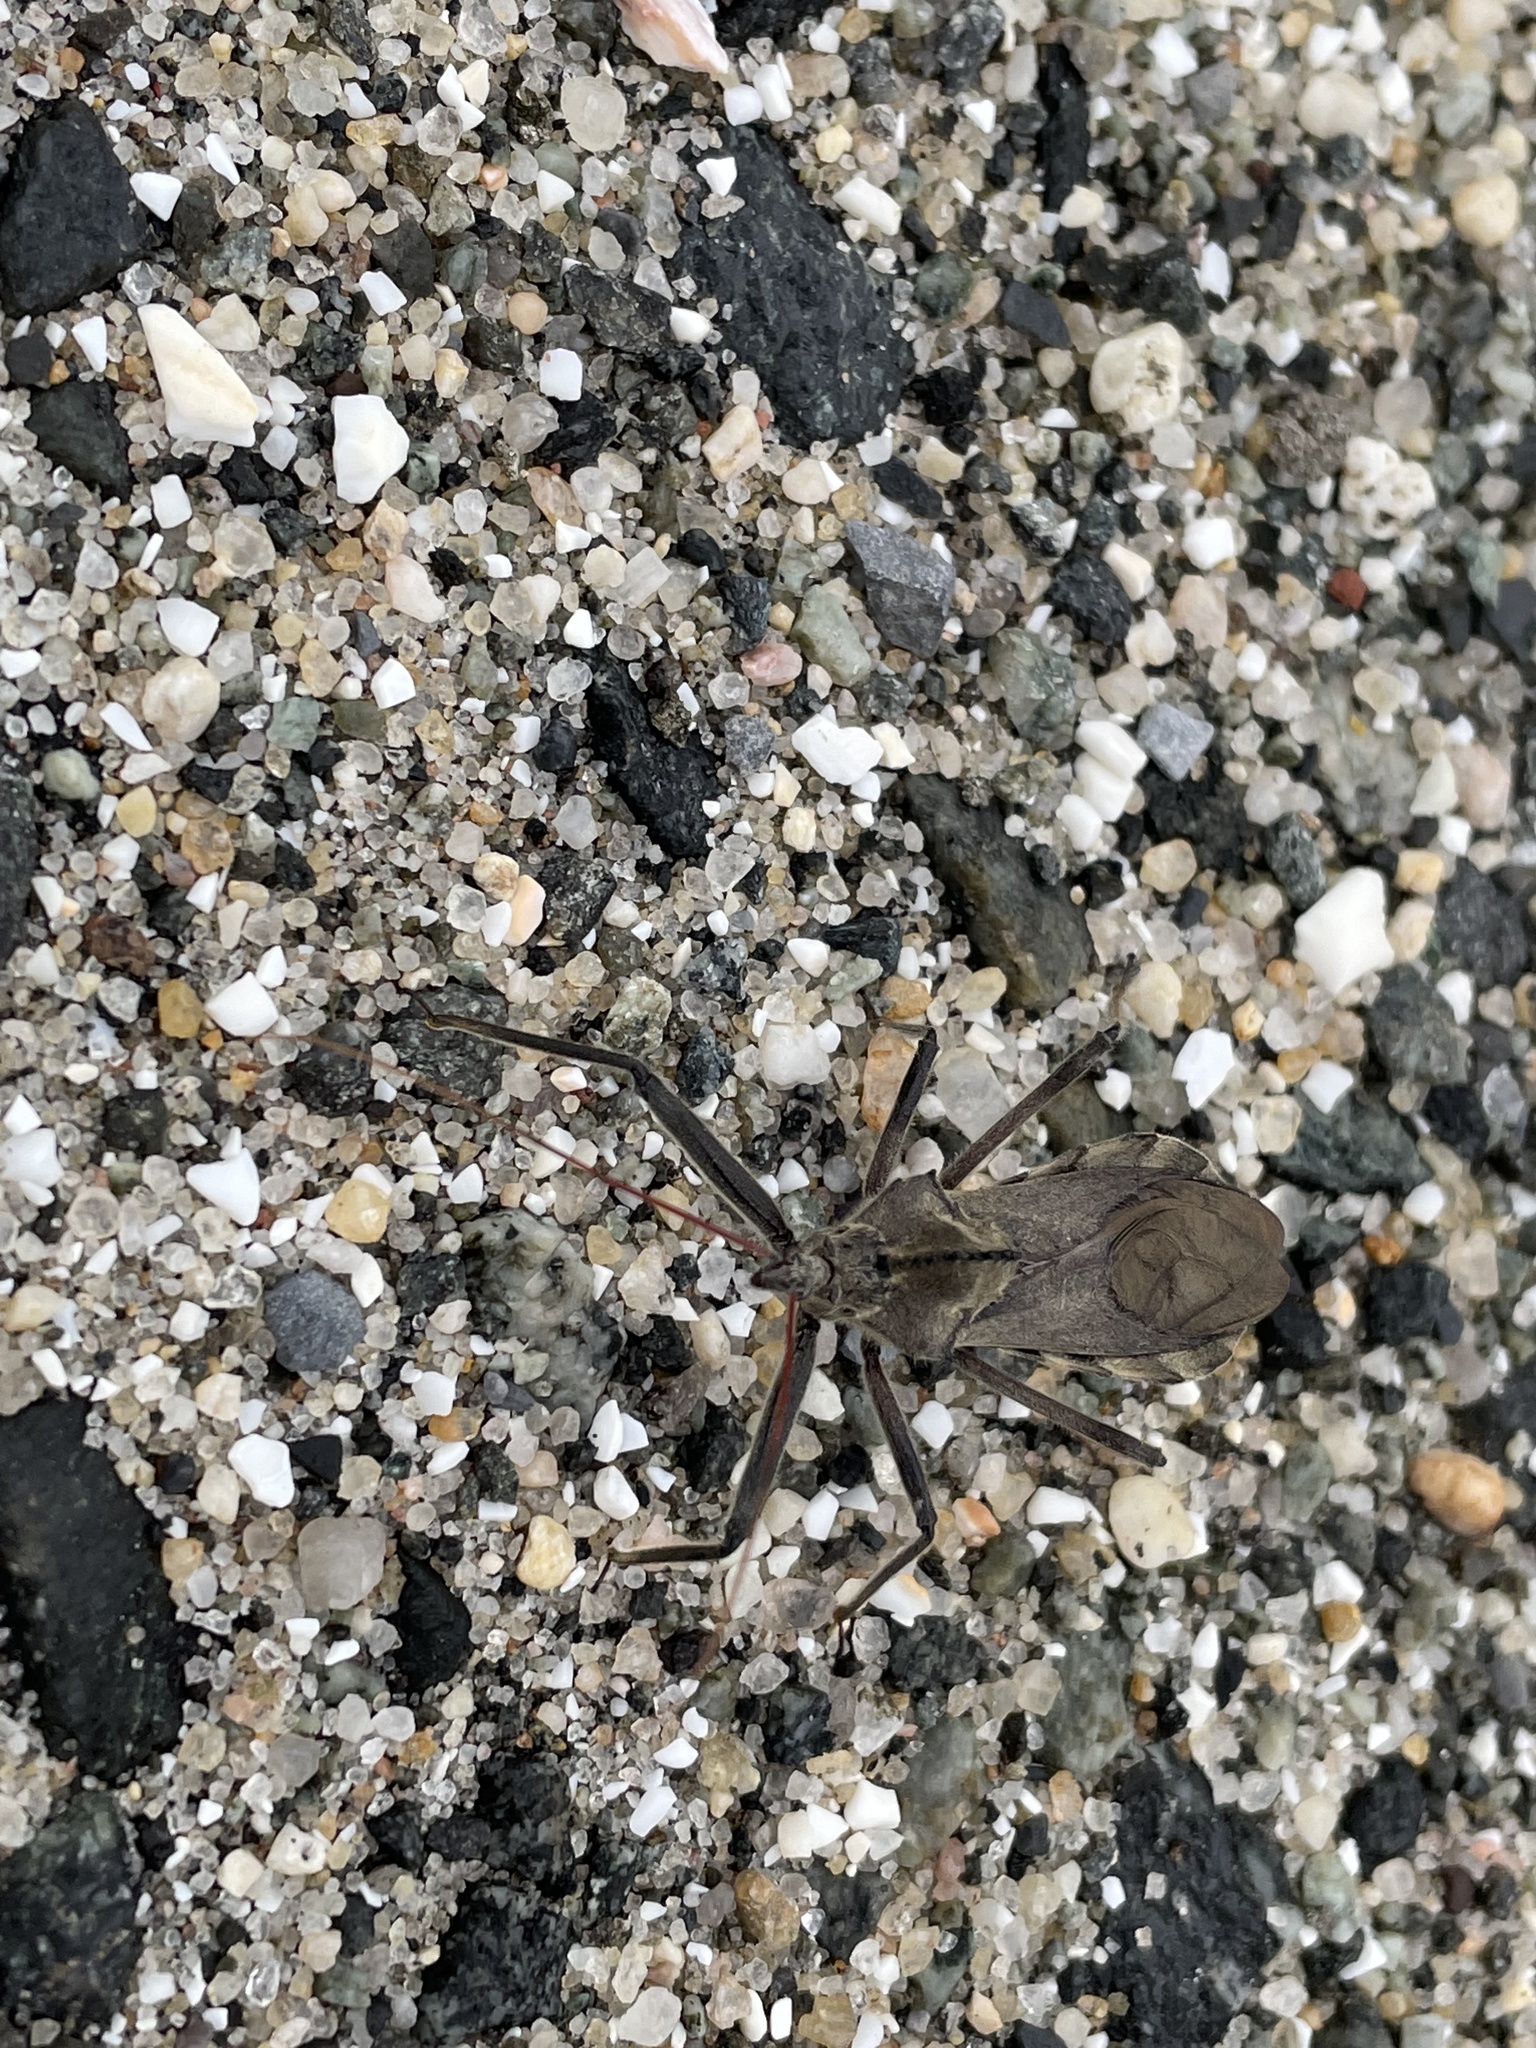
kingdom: Animalia
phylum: Arthropoda
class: Insecta
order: Hemiptera
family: Reduviidae
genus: Arilus
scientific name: Arilus cristatus
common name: North american wheel bug
